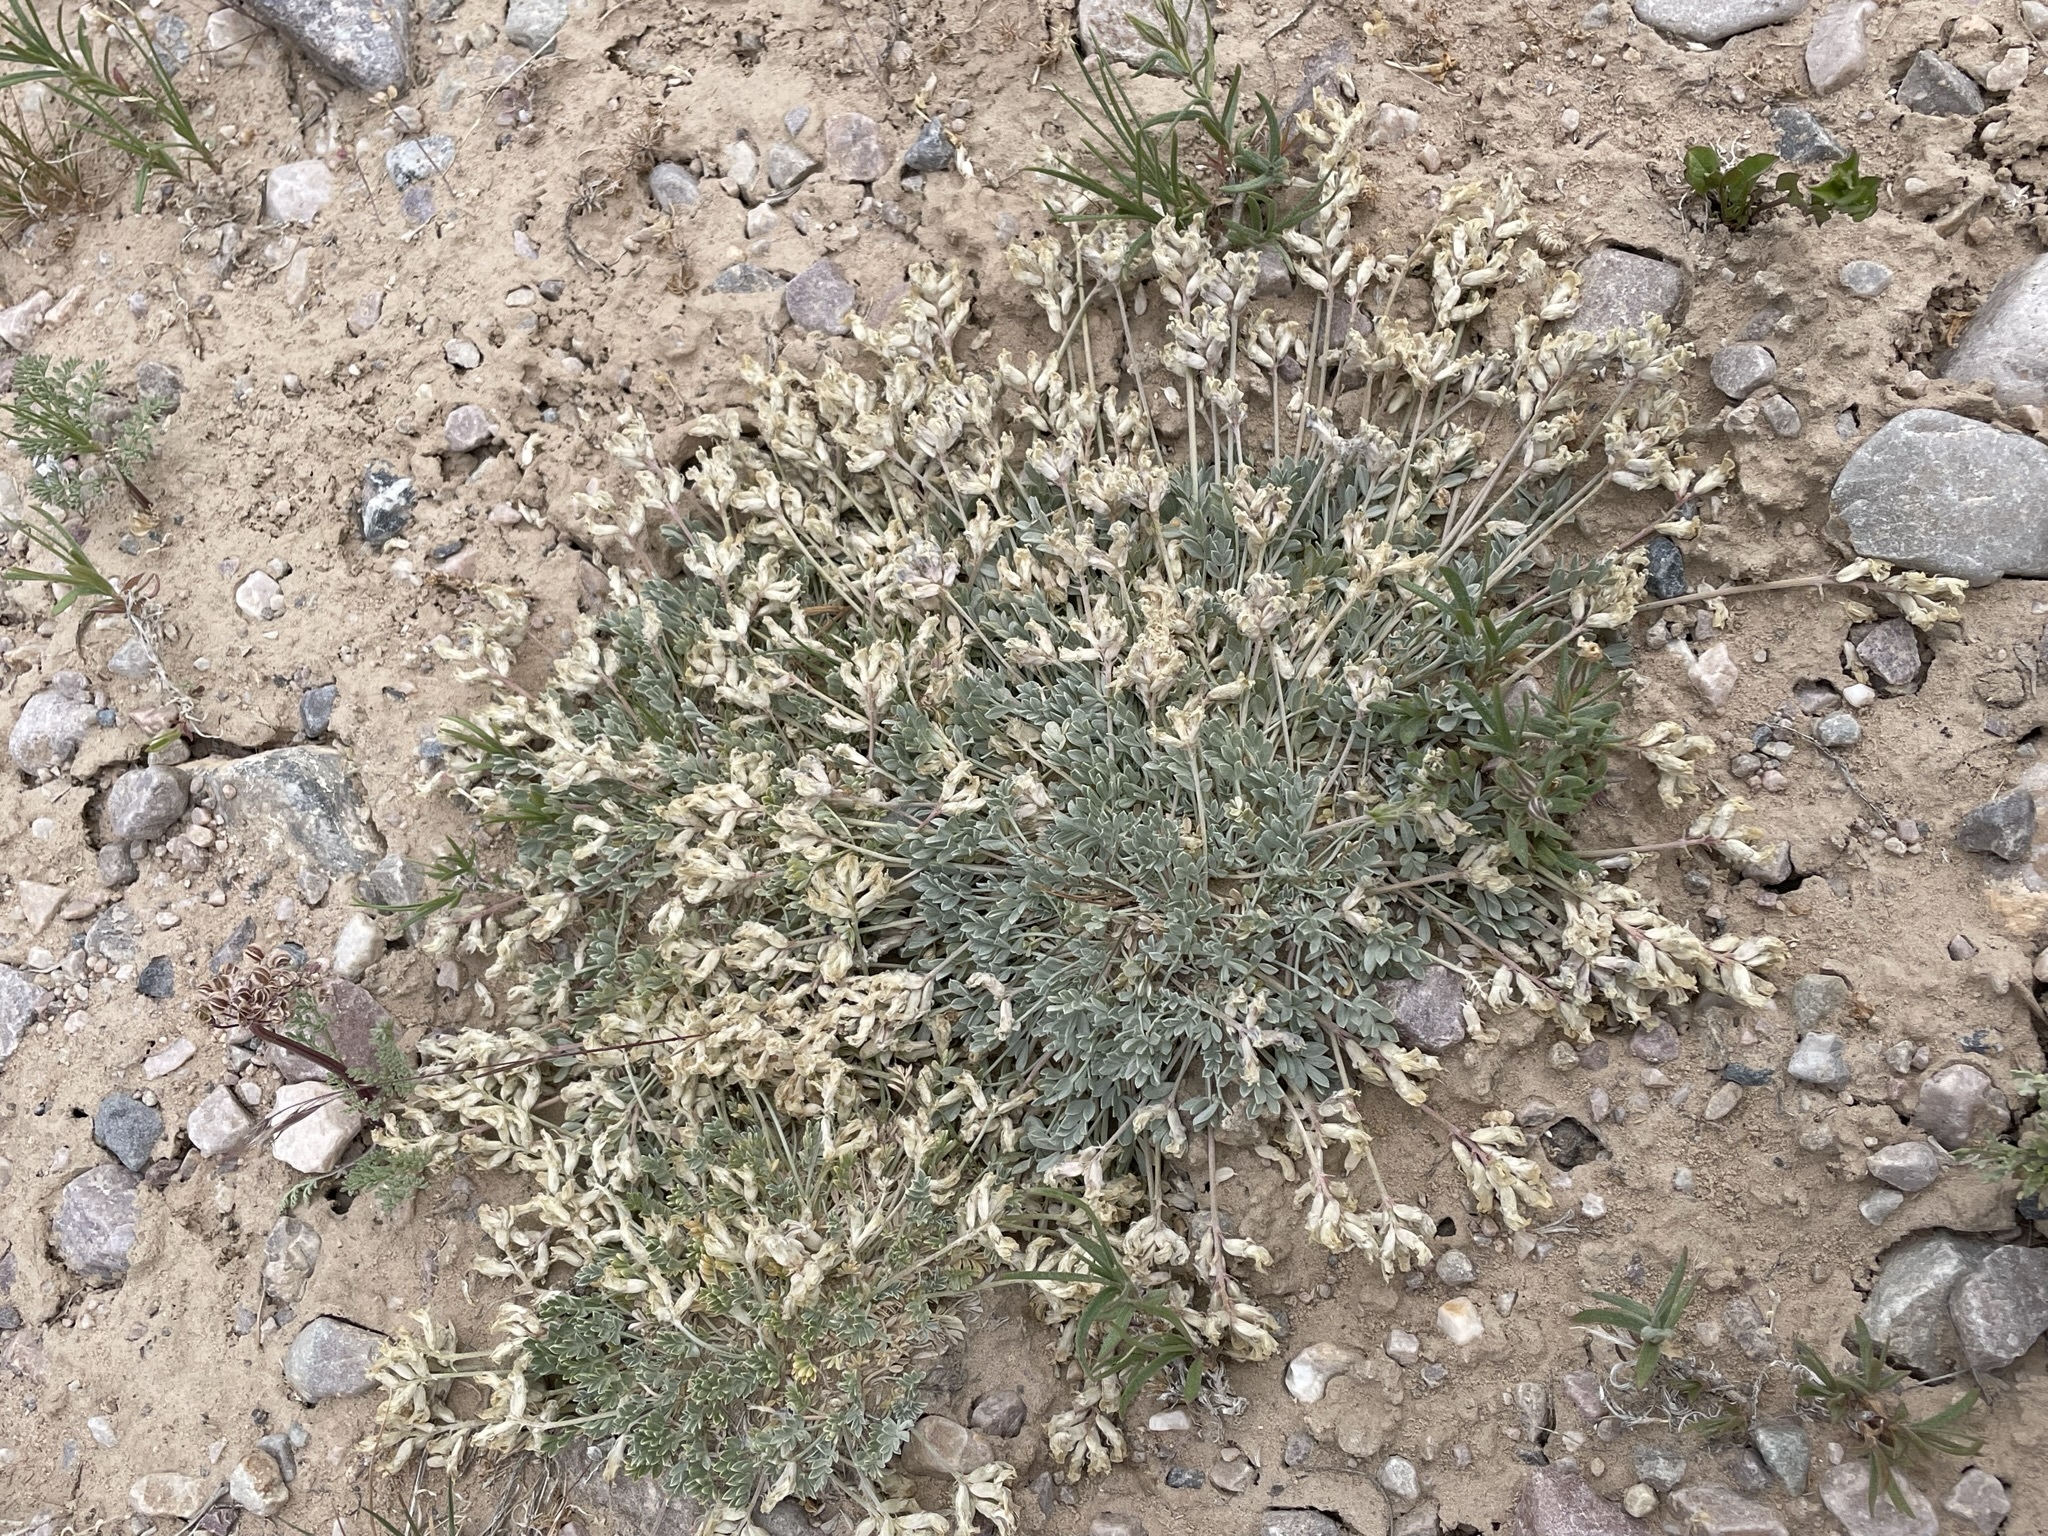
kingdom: Plantae
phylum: Tracheophyta
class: Magnoliopsida
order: Fabales
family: Fabaceae
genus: Astragalus
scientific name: Astragalus calycosus
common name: King's milkvetch
